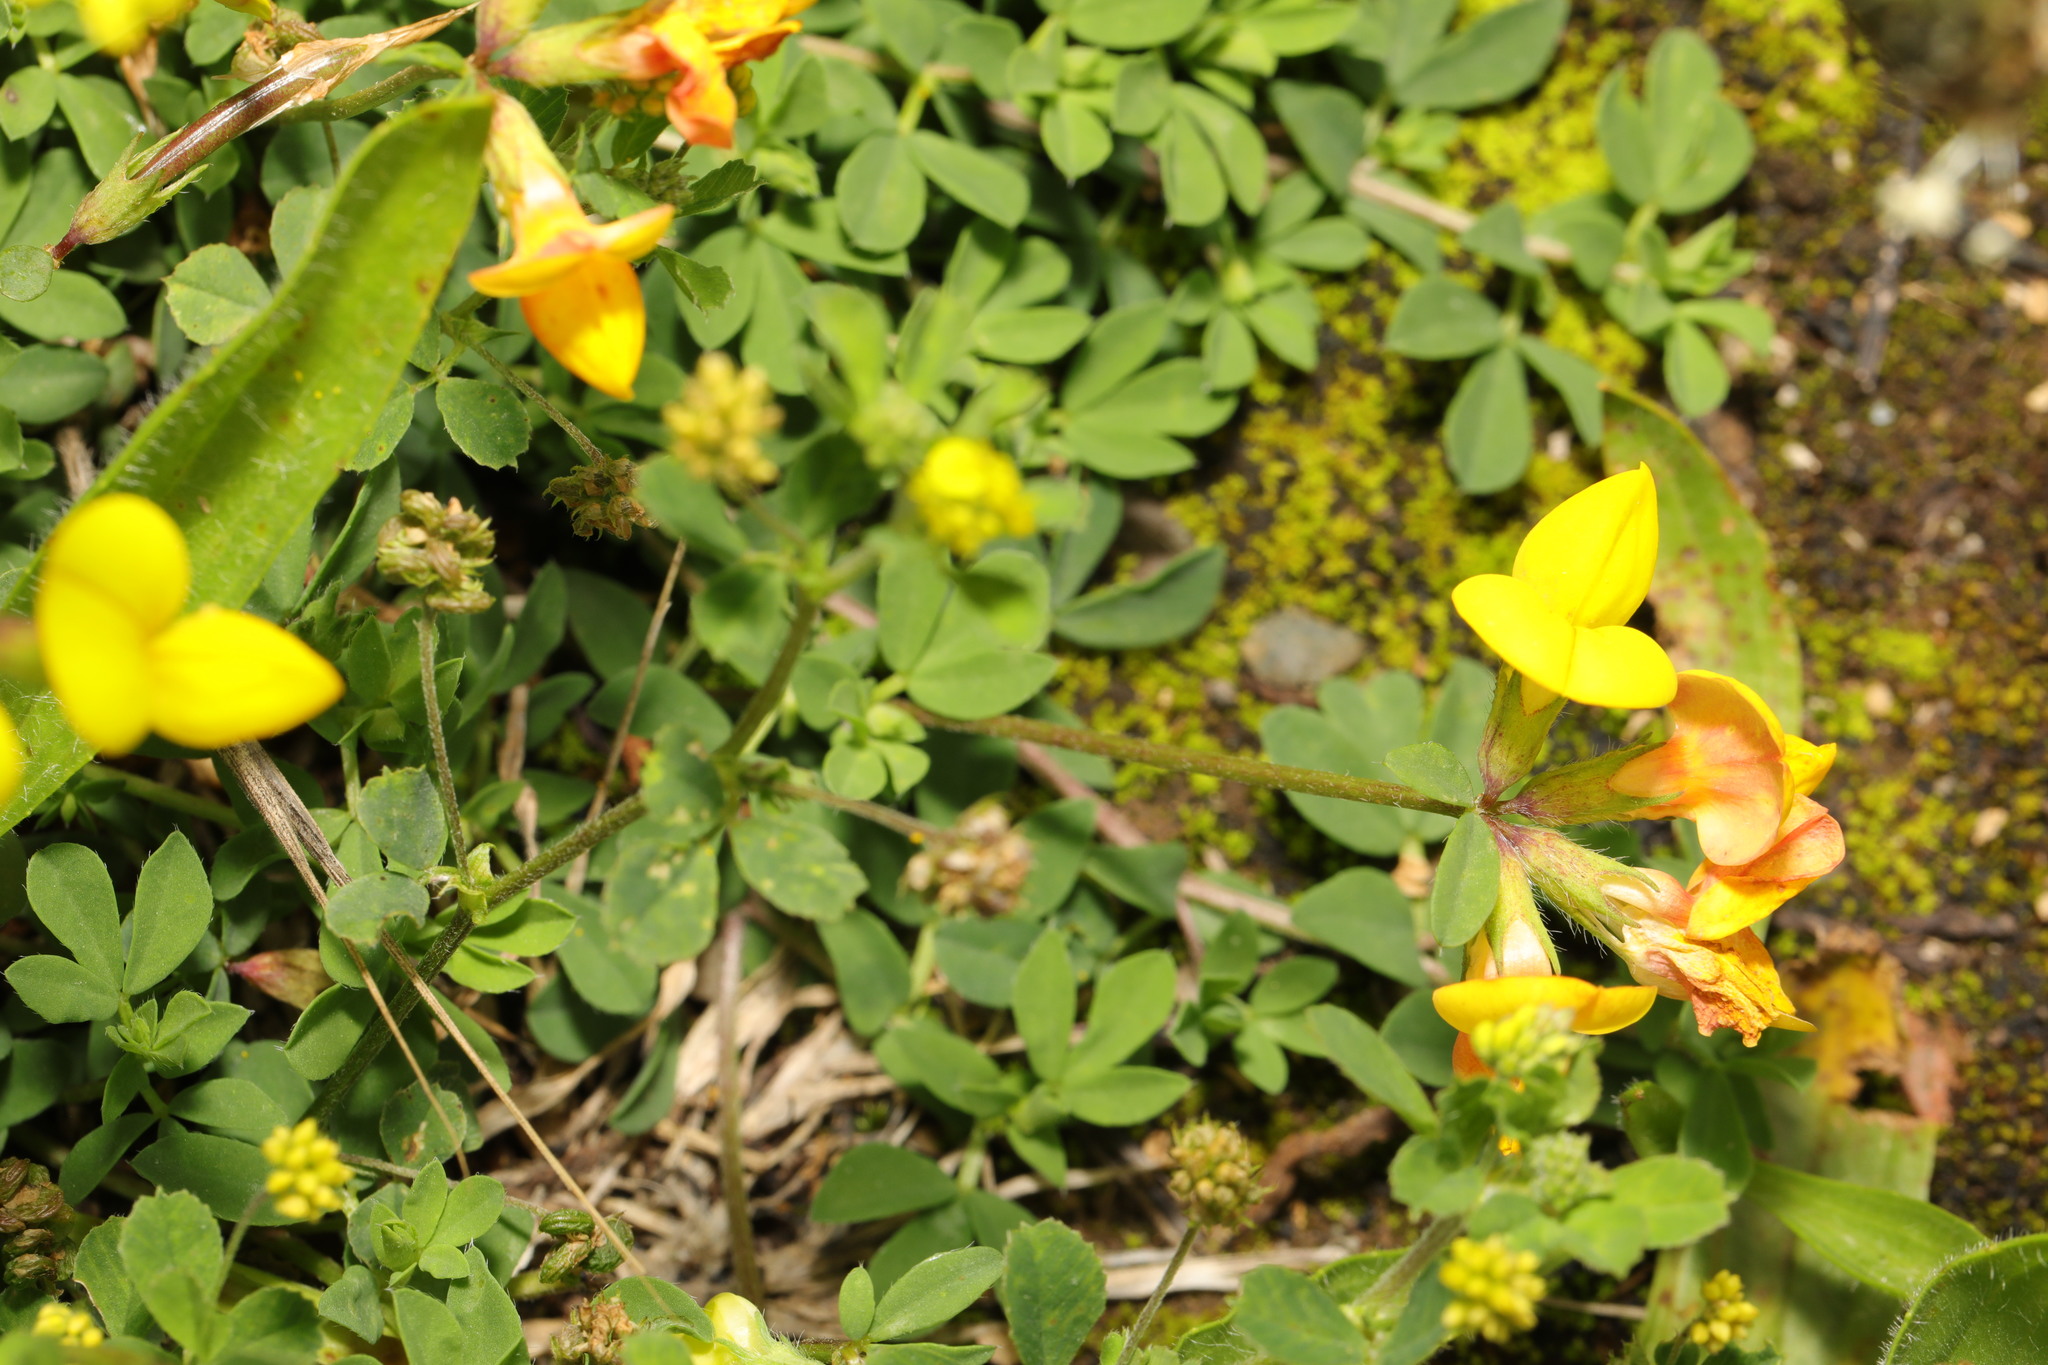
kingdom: Plantae
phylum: Tracheophyta
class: Magnoliopsida
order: Fabales
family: Fabaceae
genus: Lotus
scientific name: Lotus corniculatus
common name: Common bird's-foot-trefoil
